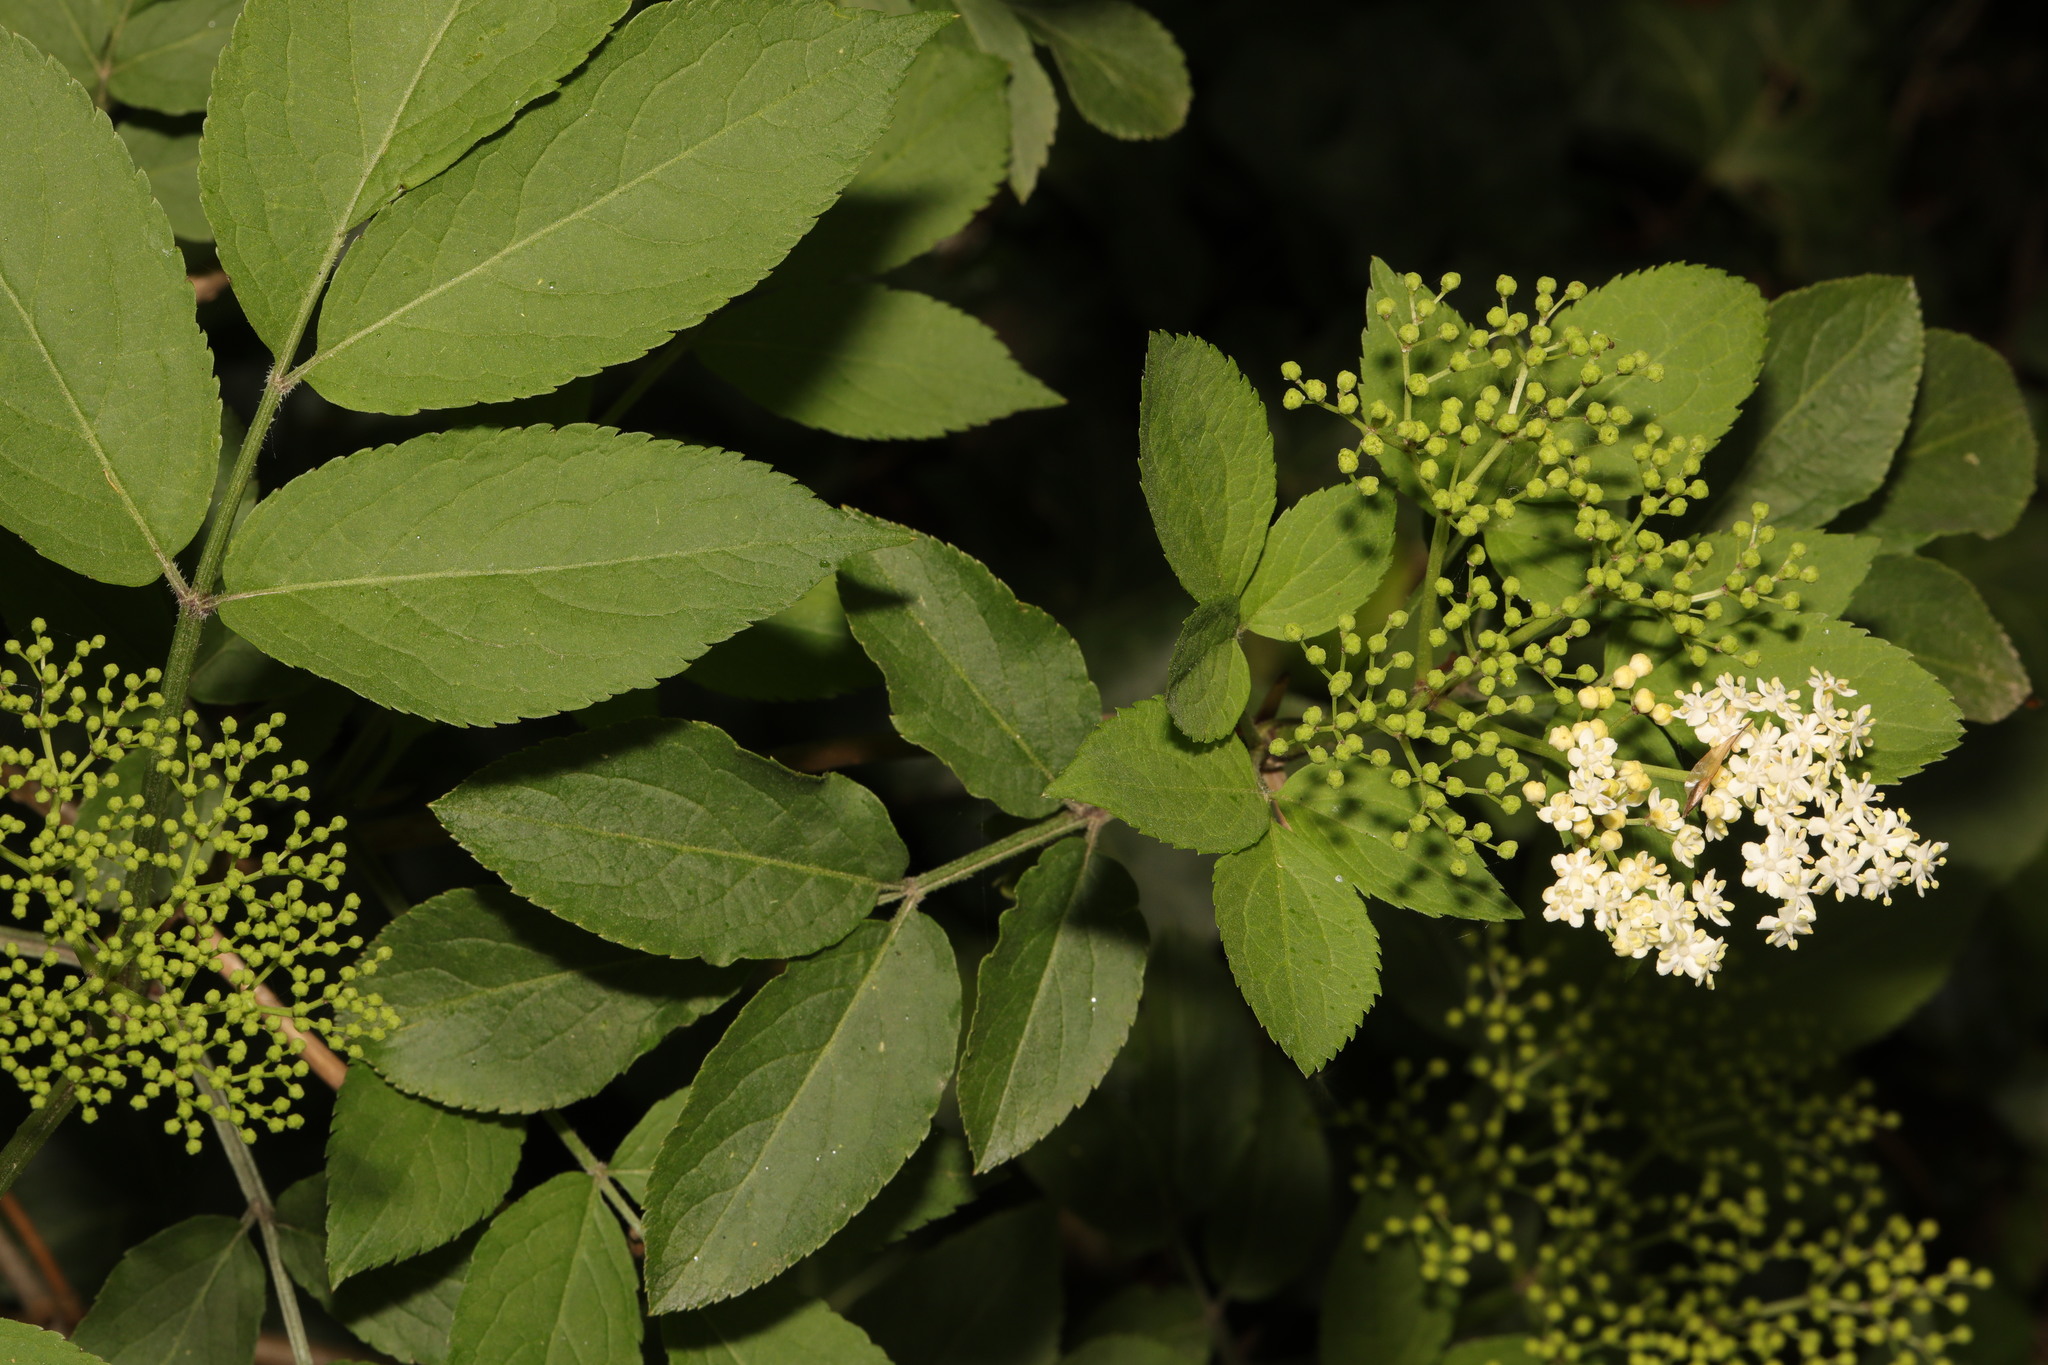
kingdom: Plantae
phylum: Tracheophyta
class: Magnoliopsida
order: Dipsacales
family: Viburnaceae
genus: Sambucus
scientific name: Sambucus nigra
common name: Elder
